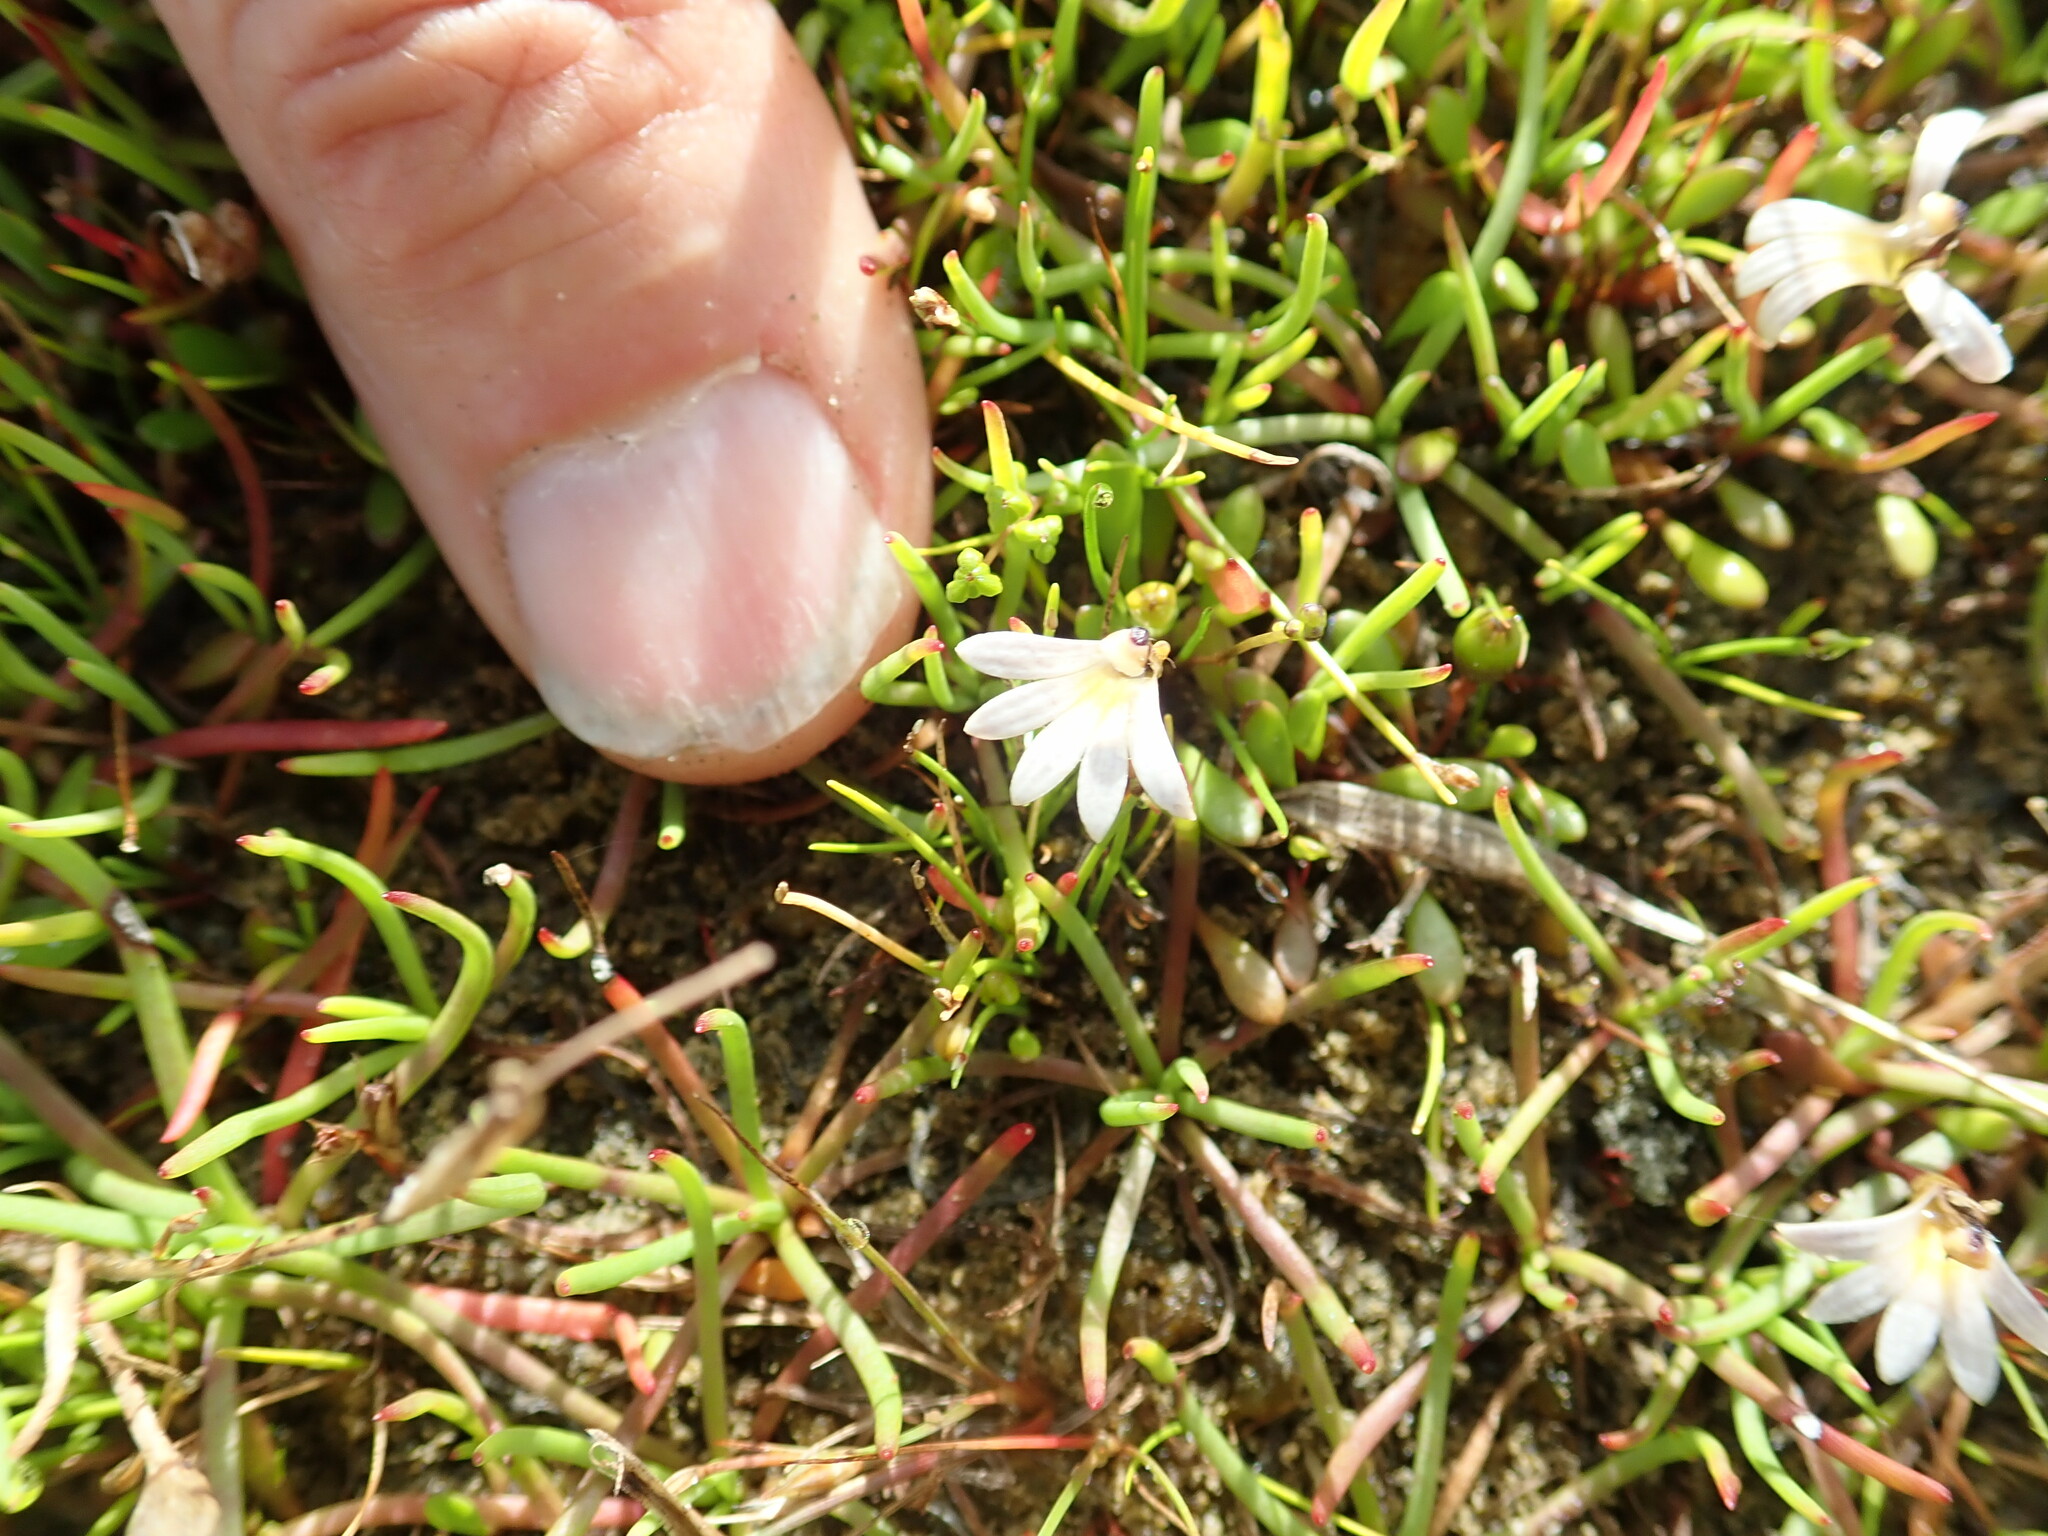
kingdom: Plantae
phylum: Tracheophyta
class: Magnoliopsida
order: Asterales
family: Goodeniaceae
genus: Goodenia
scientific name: Goodenia radicans
